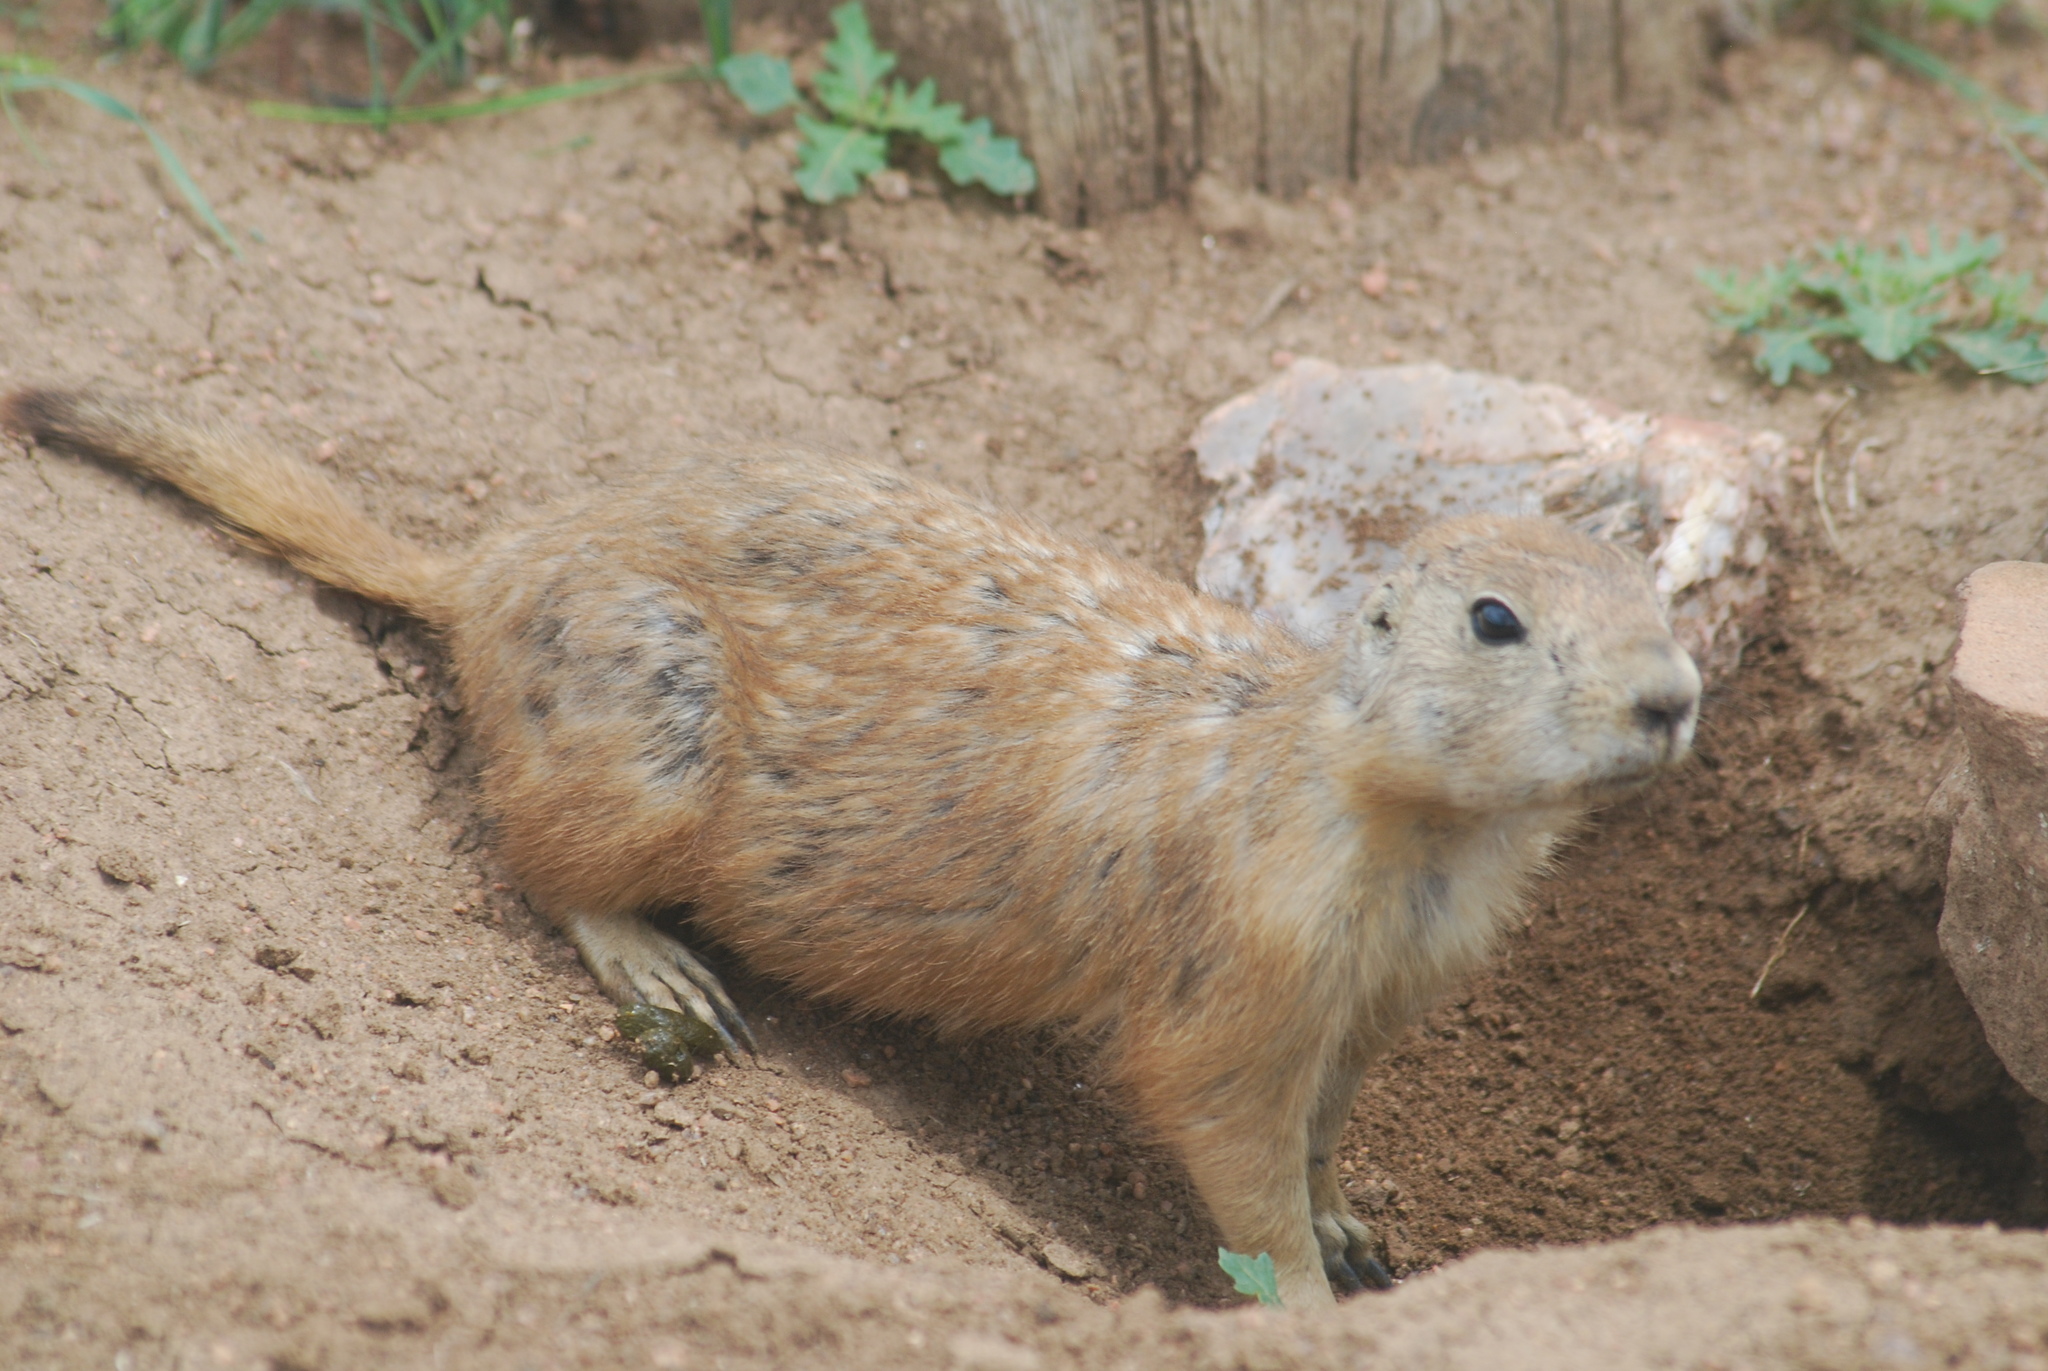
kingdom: Animalia
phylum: Chordata
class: Mammalia
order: Rodentia
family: Sciuridae
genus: Cynomys
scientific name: Cynomys ludovicianus
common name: Black-tailed prairie dog
